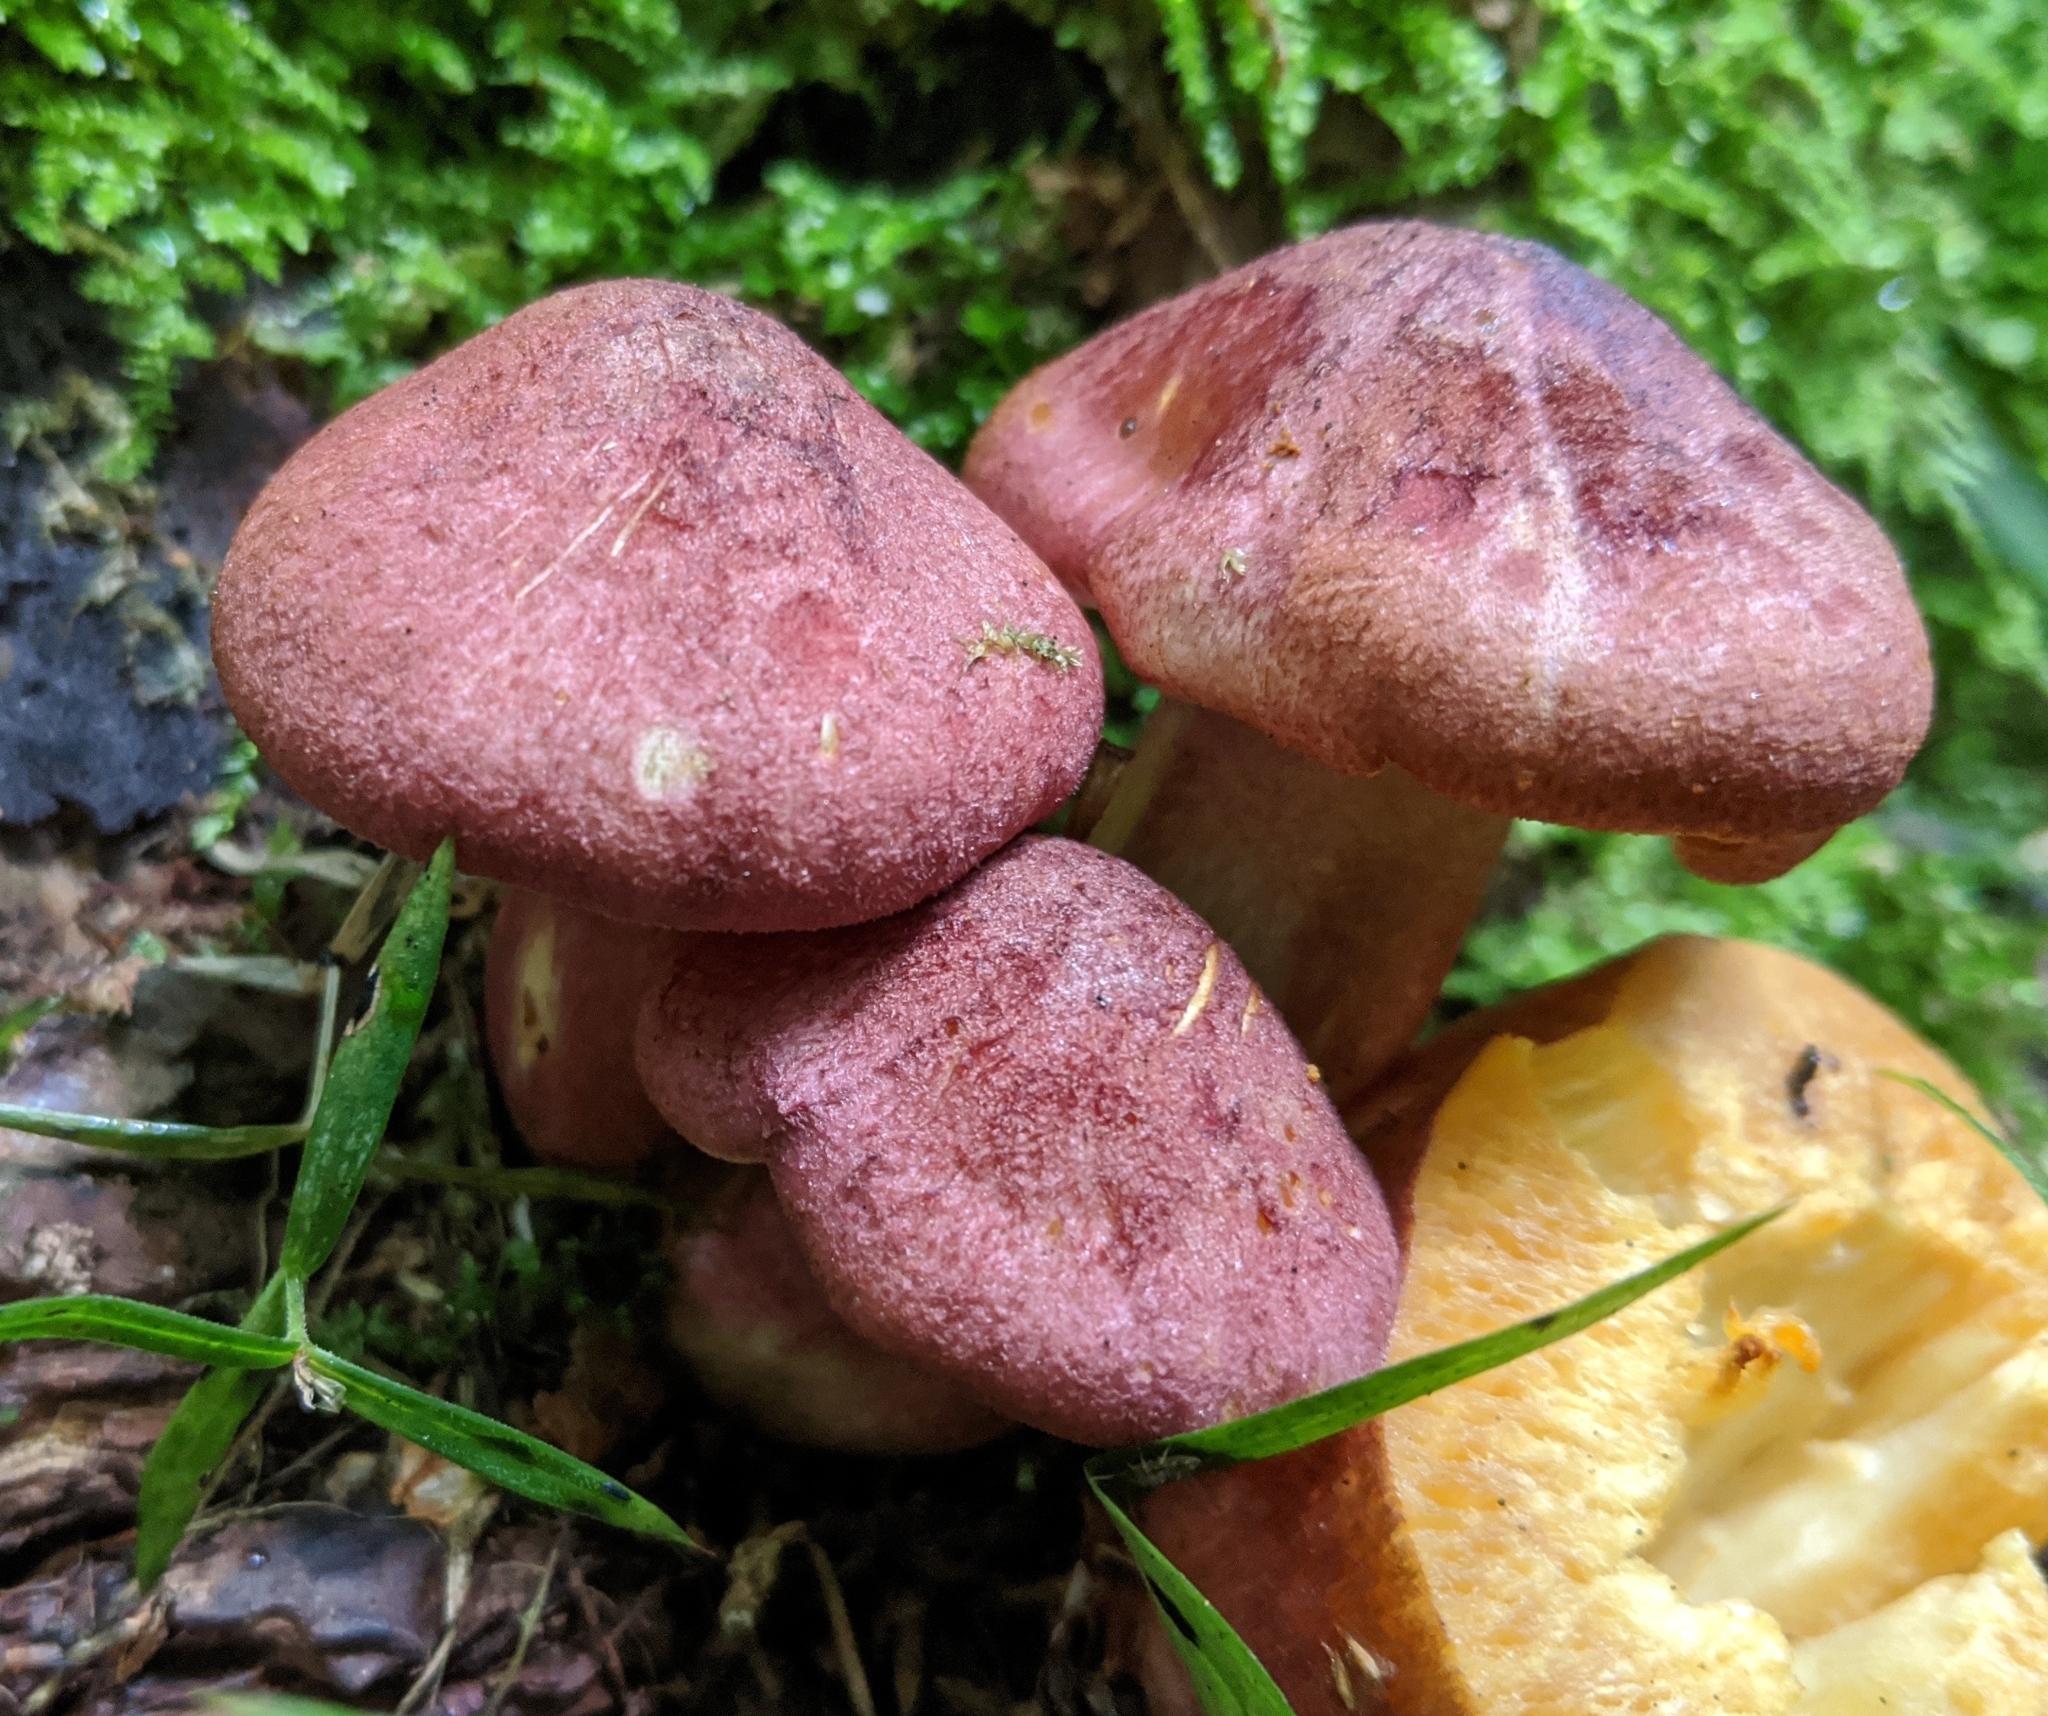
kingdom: Fungi
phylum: Basidiomycota
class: Agaricomycetes
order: Agaricales
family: Tricholomataceae
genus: Tricholomopsis
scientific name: Tricholomopsis rutilans
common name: Plums and custard
